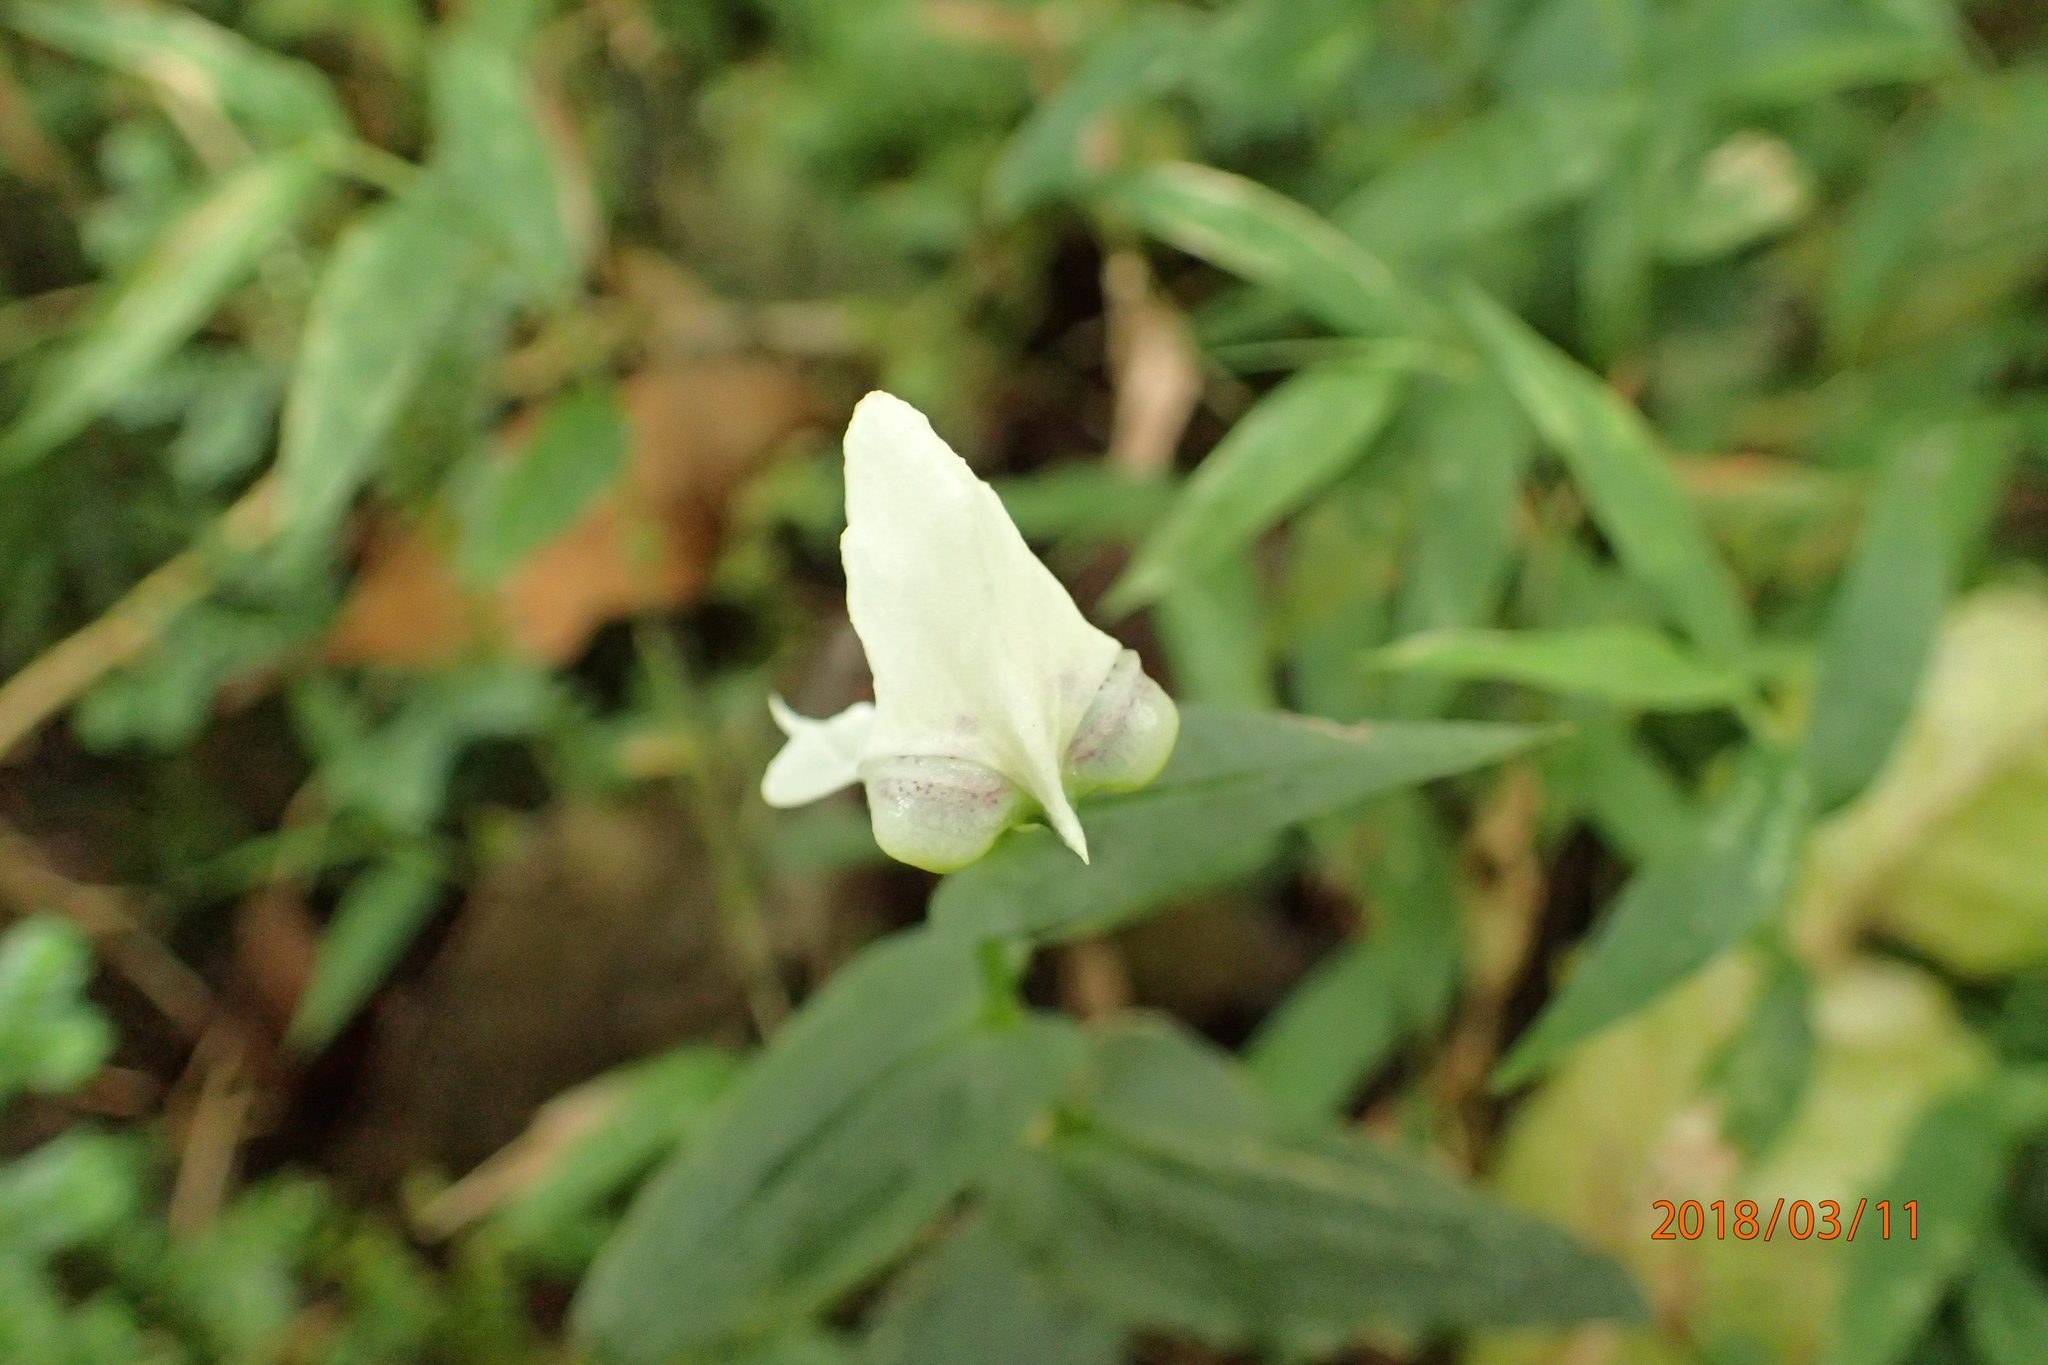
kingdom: Plantae
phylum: Tracheophyta
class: Liliopsida
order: Asparagales
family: Orchidaceae
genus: Disperis
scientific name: Disperis fanniniae
